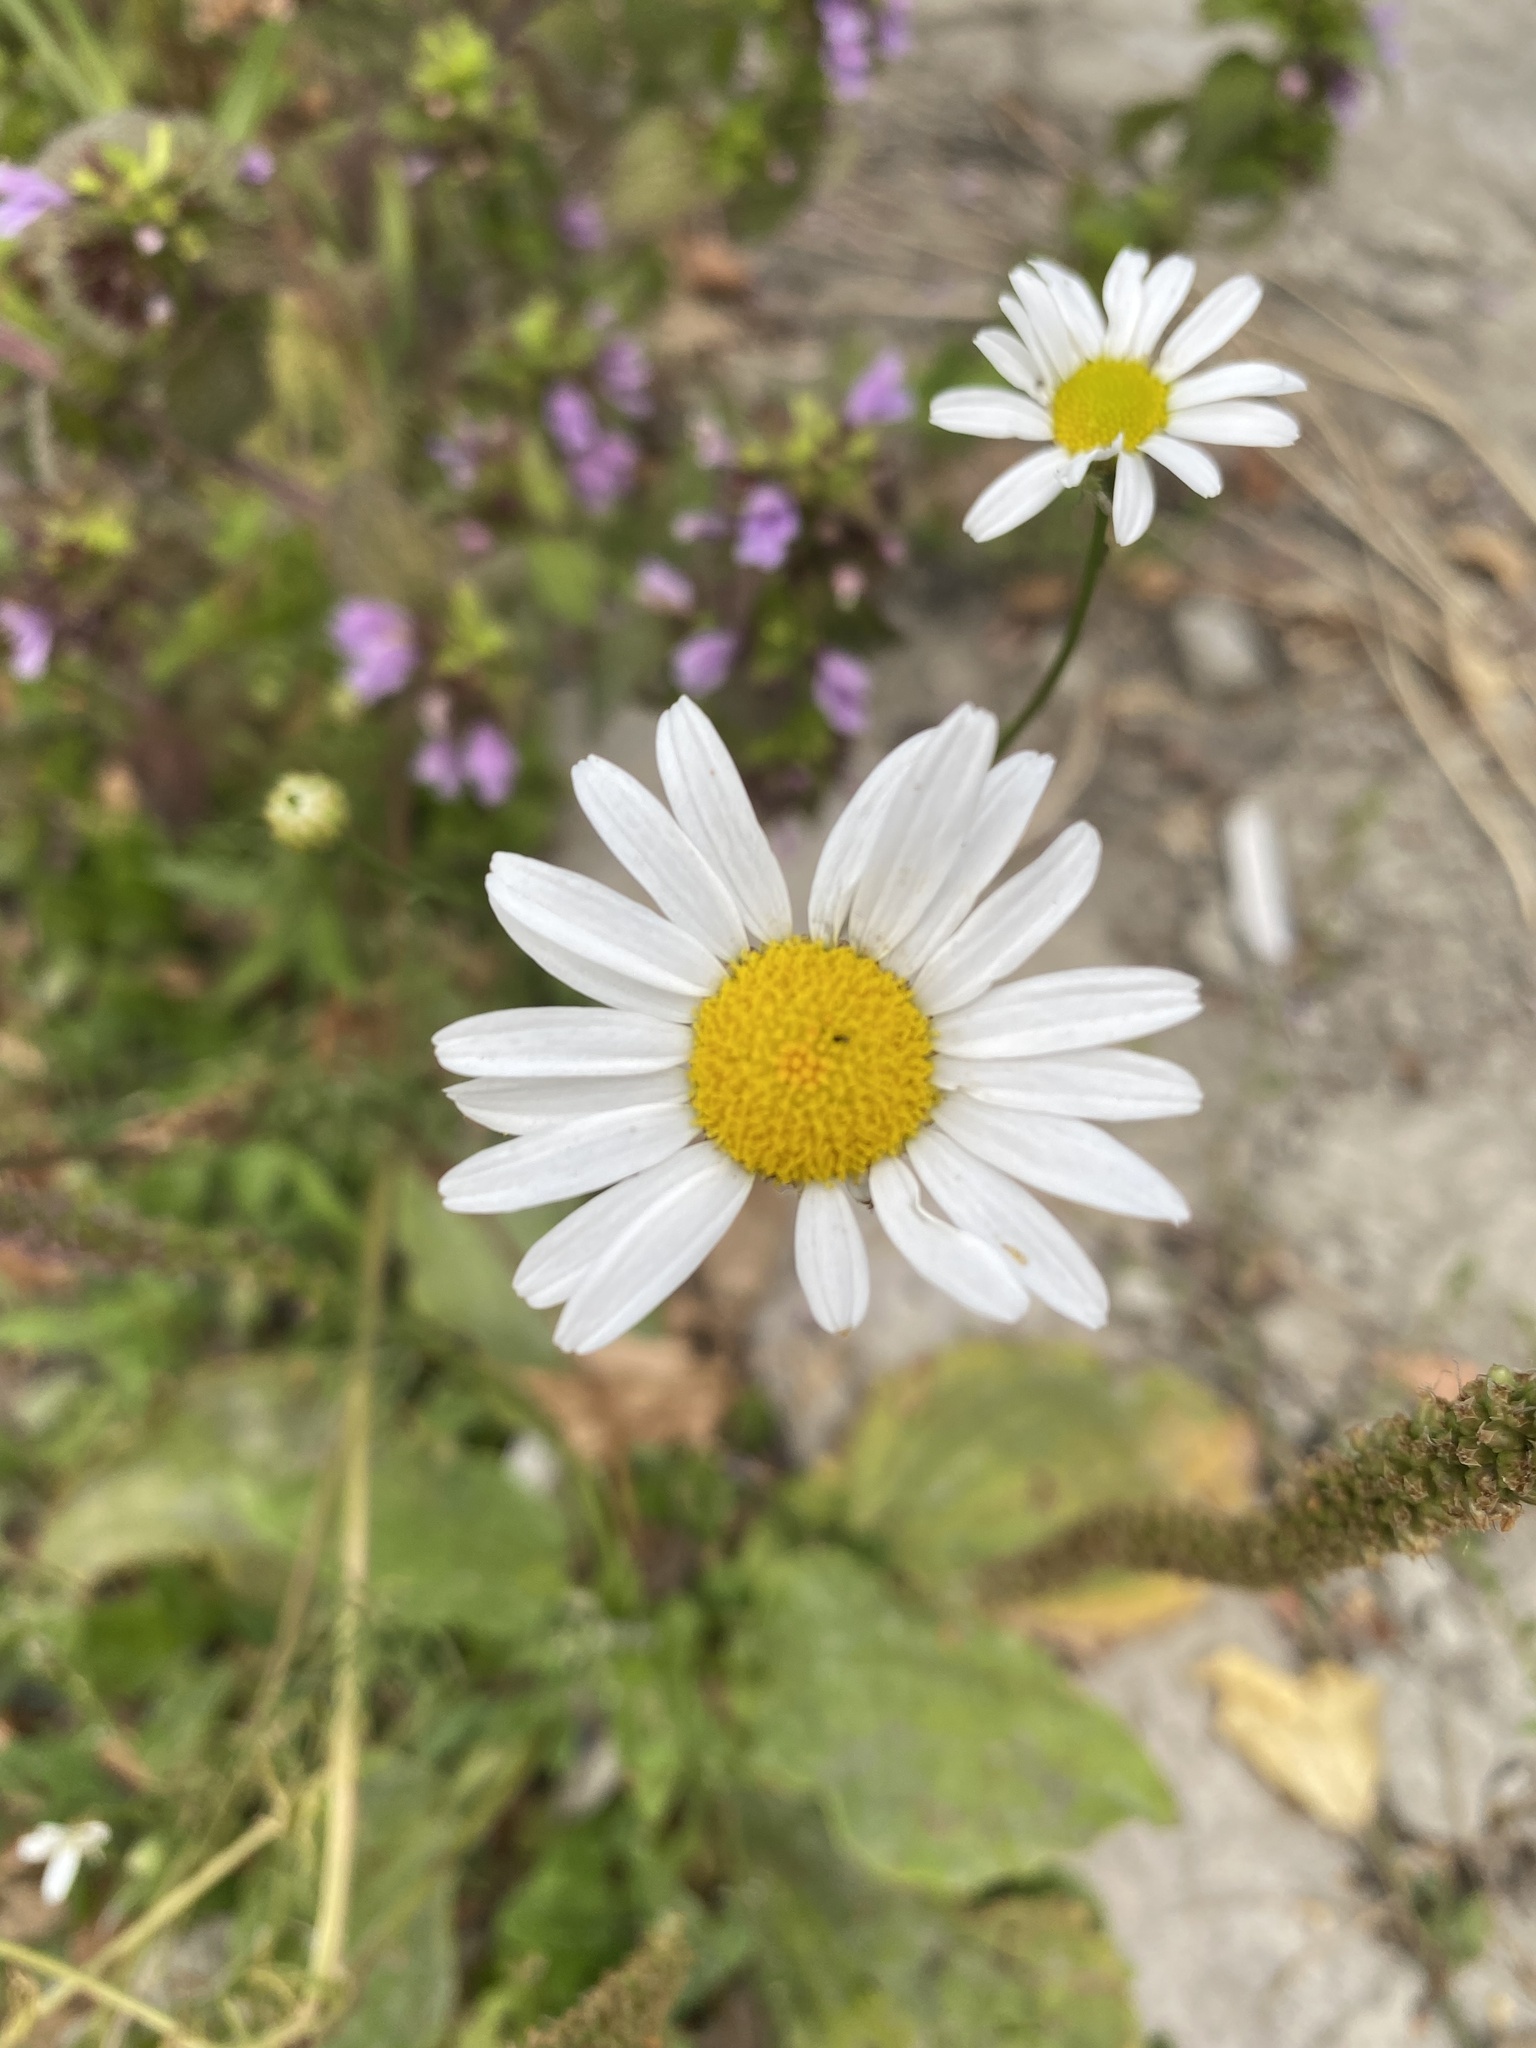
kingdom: Plantae
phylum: Tracheophyta
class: Magnoliopsida
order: Asterales
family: Asteraceae
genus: Tripleurospermum
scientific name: Tripleurospermum inodorum
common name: Scentless mayweed
